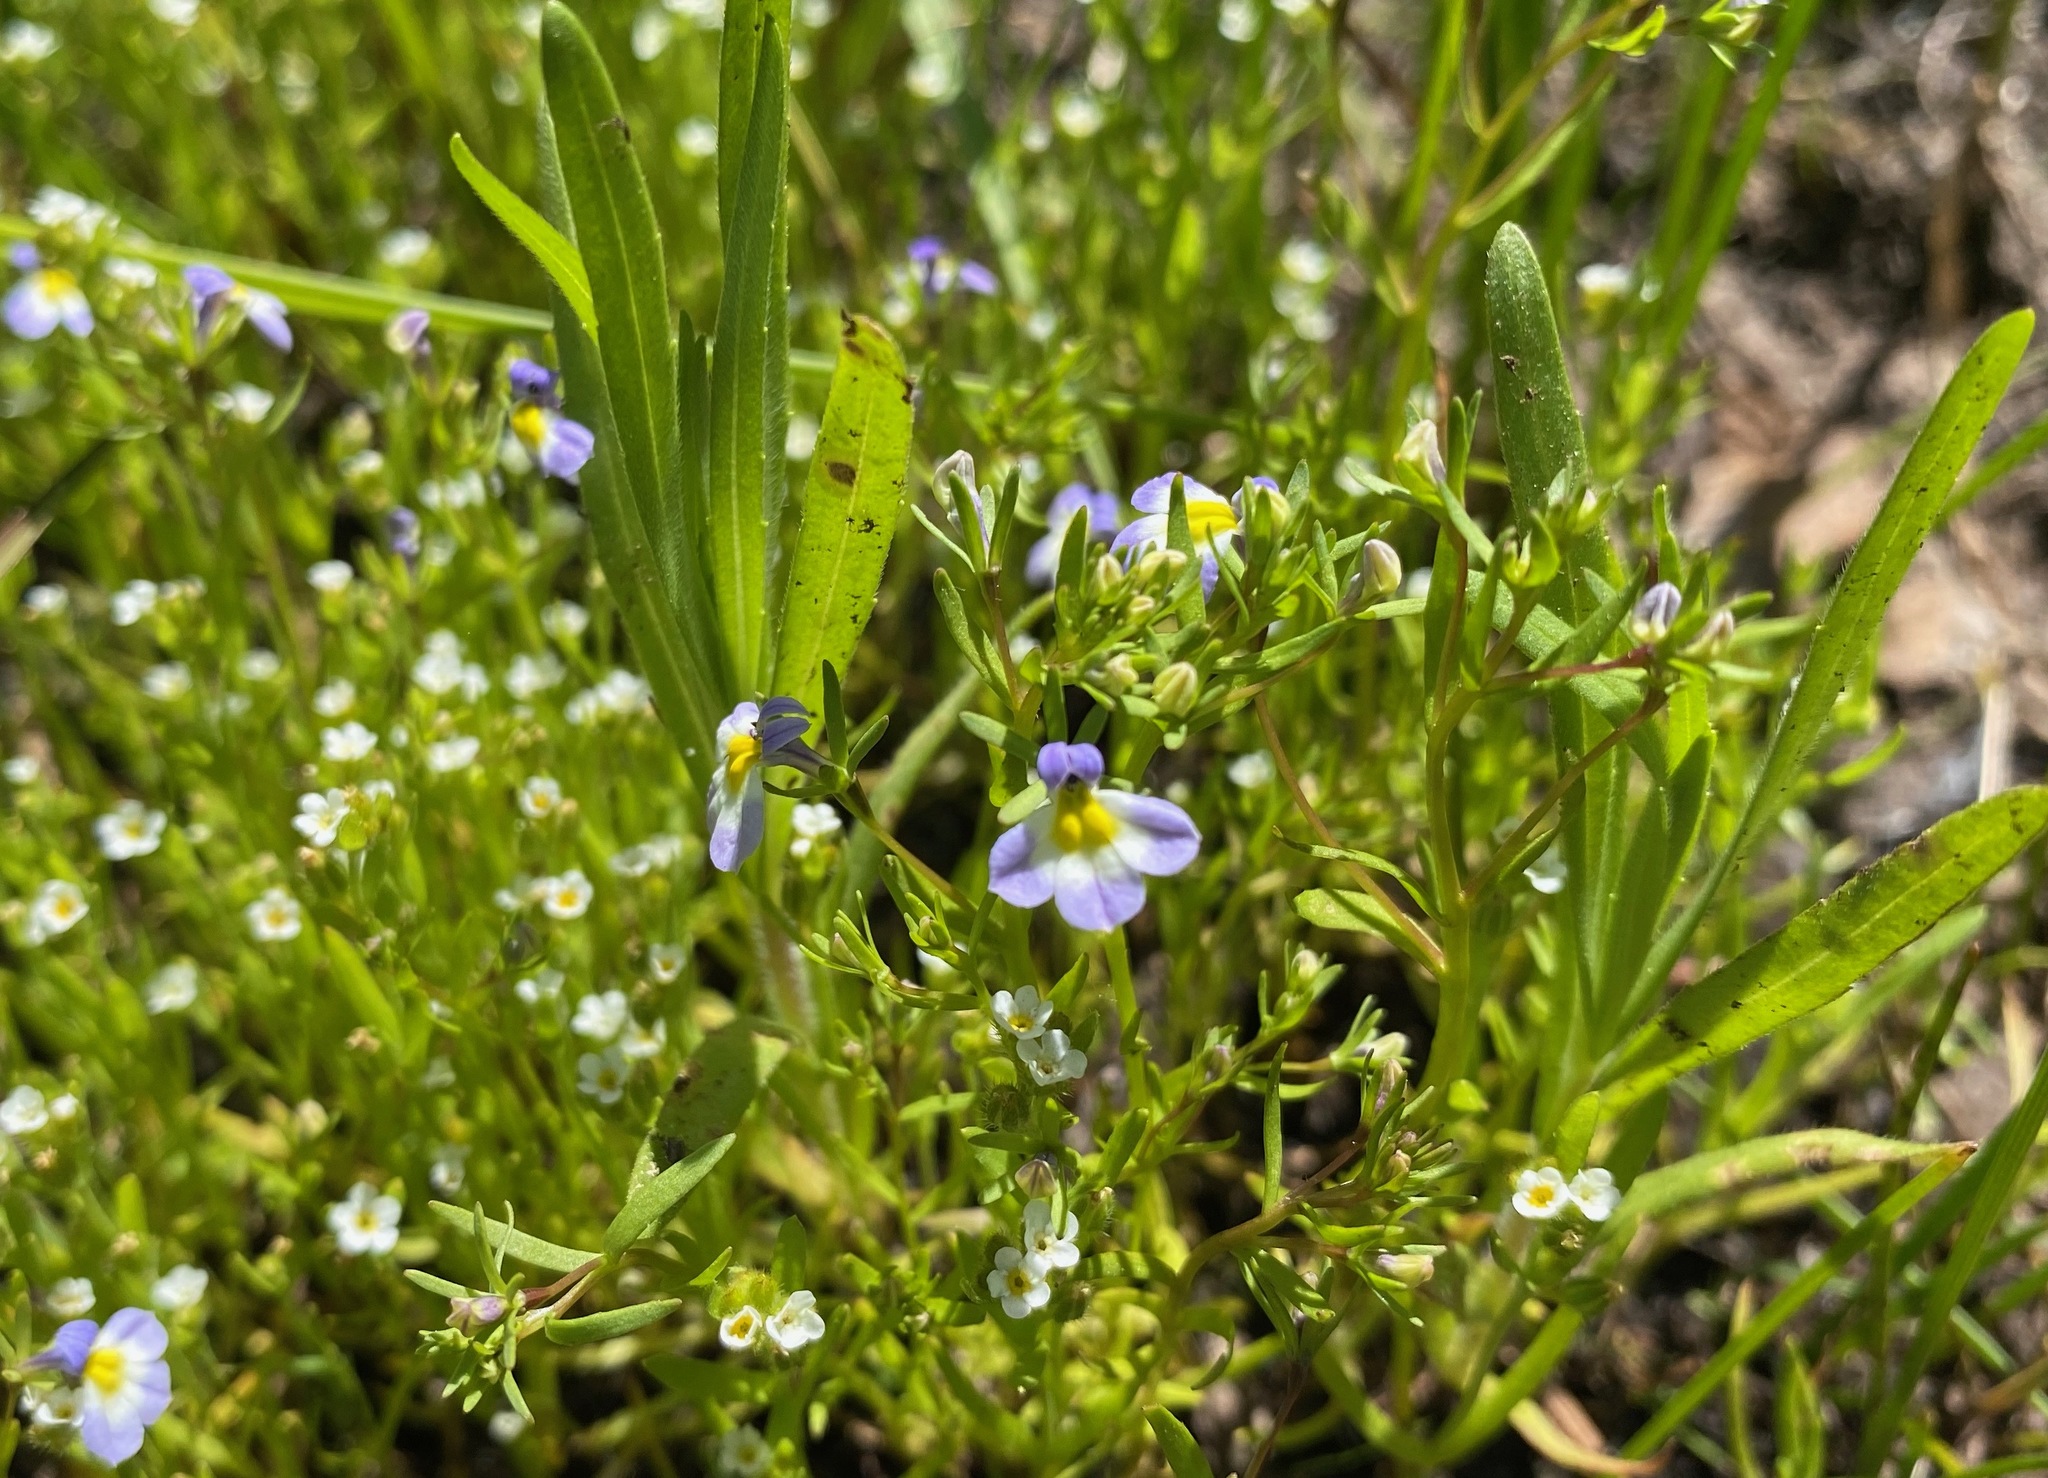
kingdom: Plantae
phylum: Tracheophyta
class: Magnoliopsida
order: Asterales
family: Campanulaceae
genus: Porterella
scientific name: Porterella carnosula
